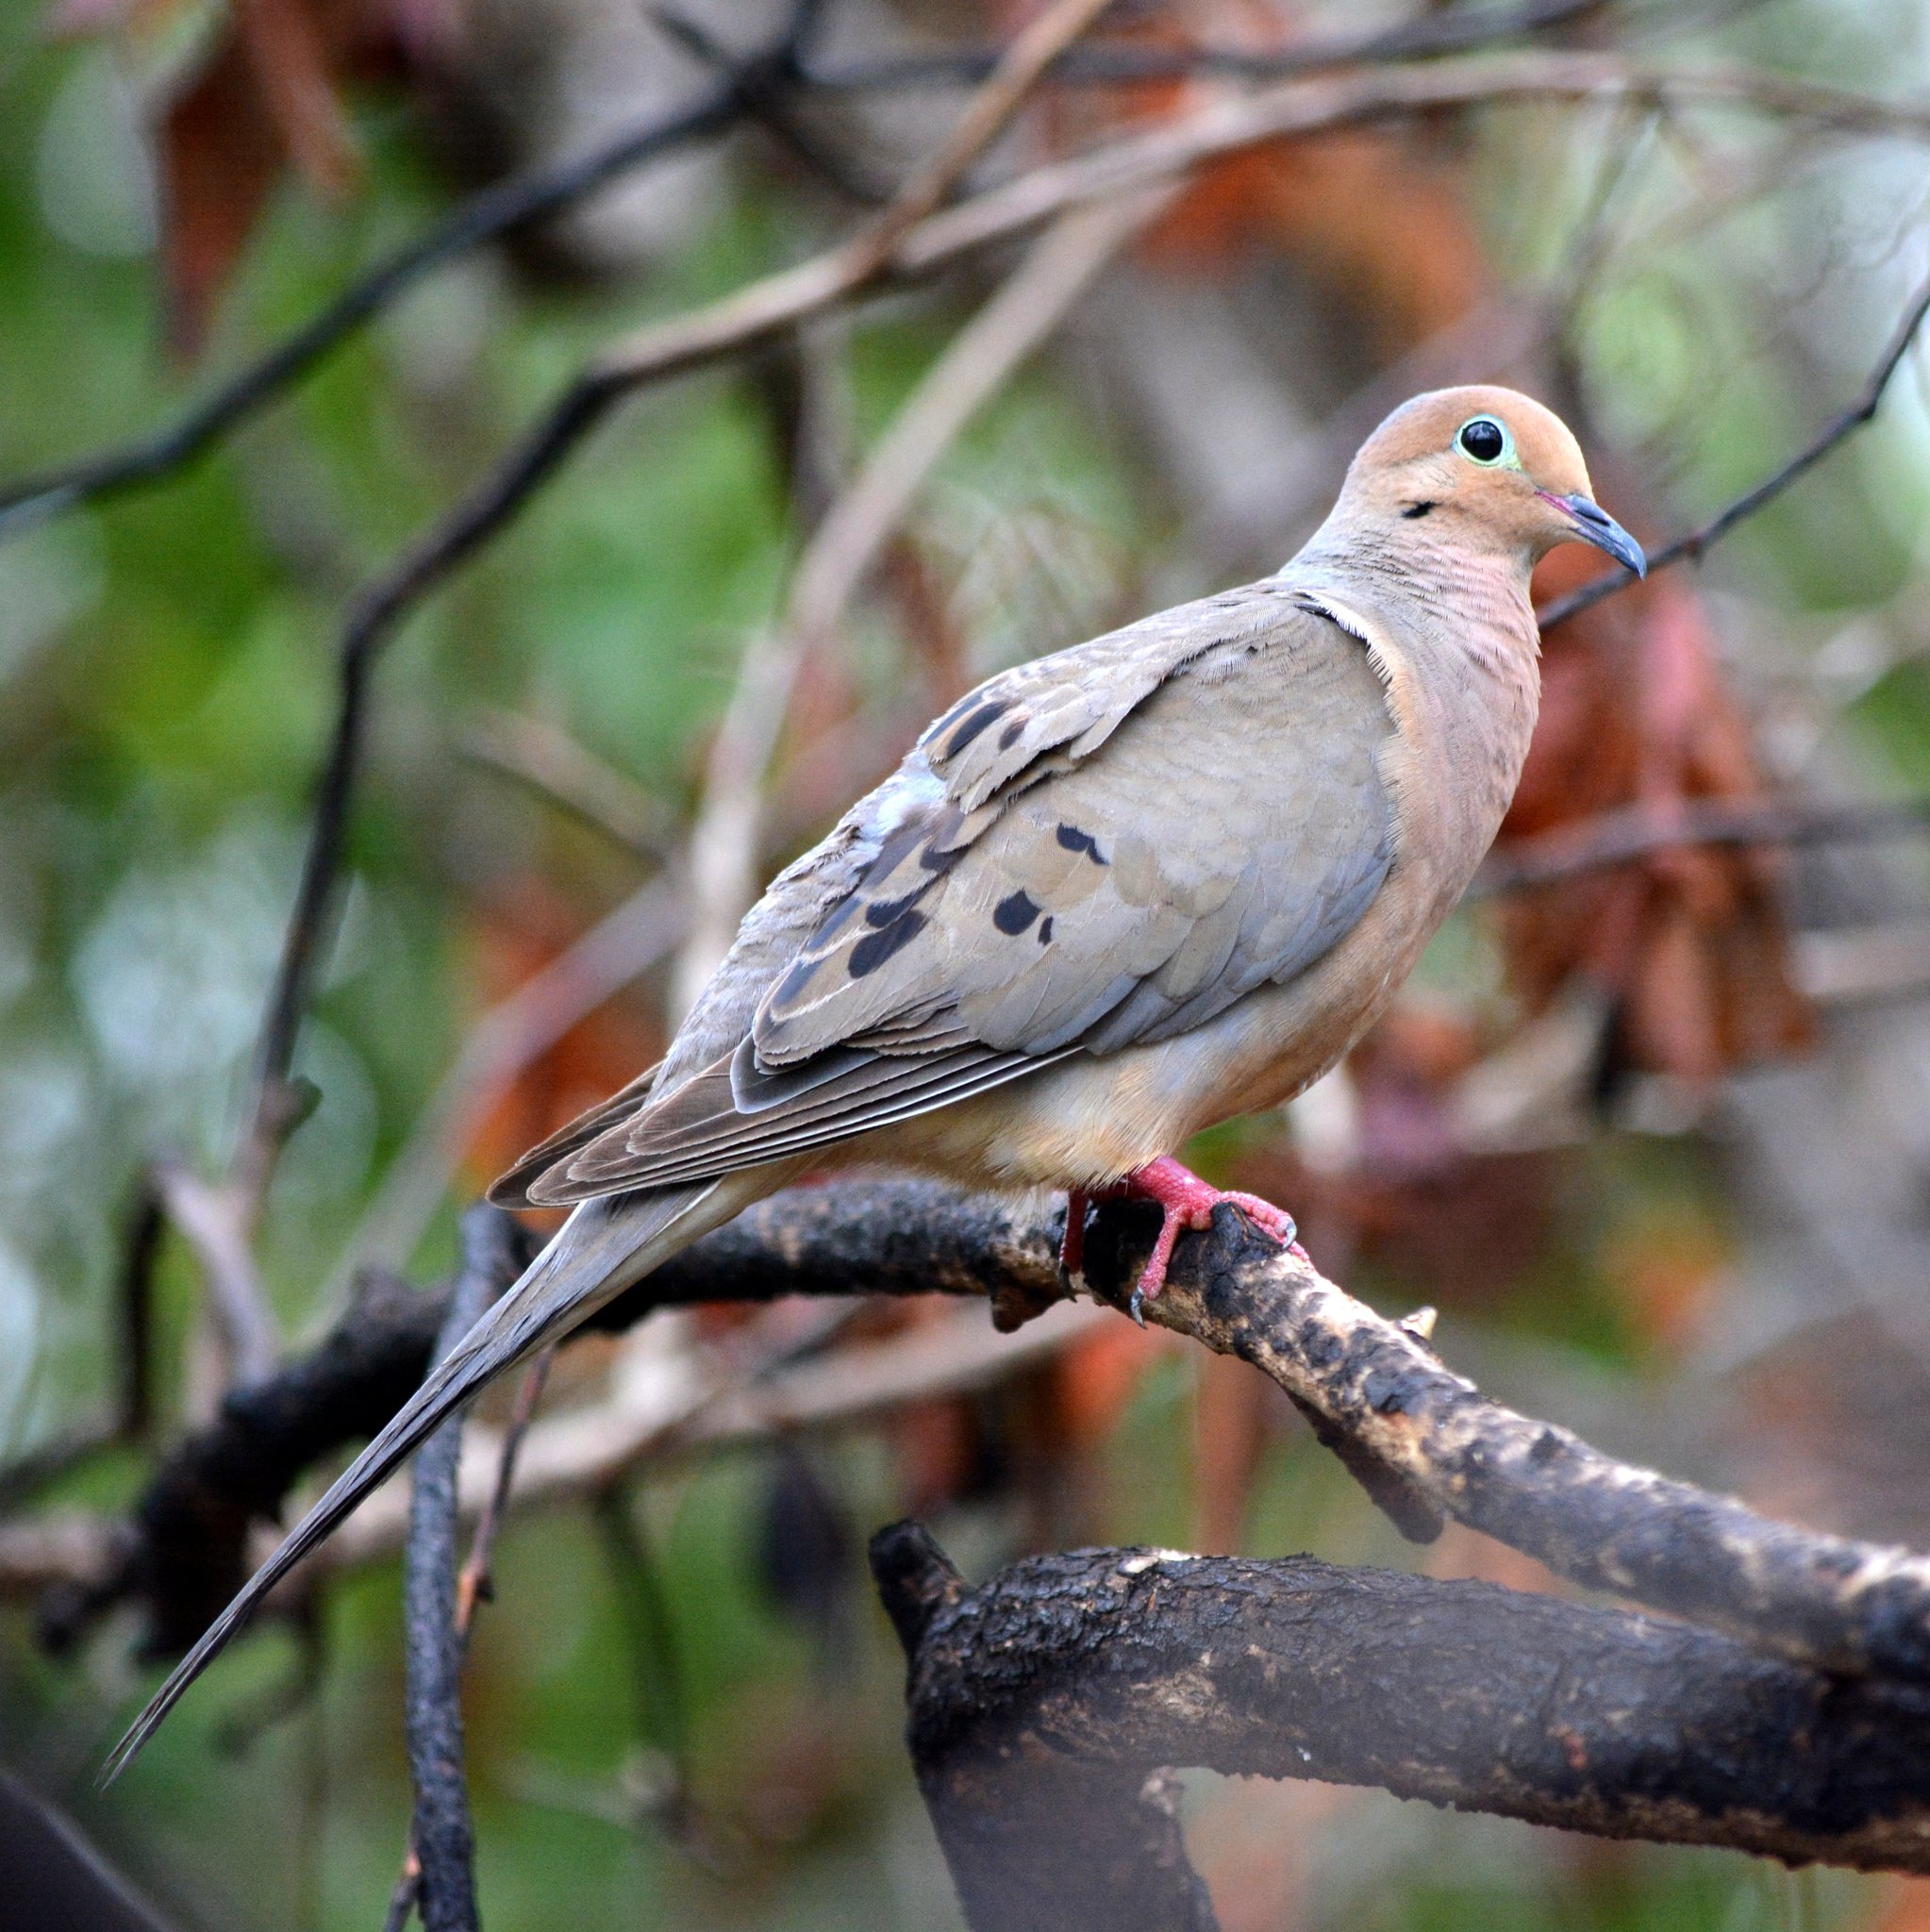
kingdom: Animalia
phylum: Chordata
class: Aves
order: Columbiformes
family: Columbidae
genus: Zenaida
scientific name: Zenaida macroura
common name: Mourning dove
